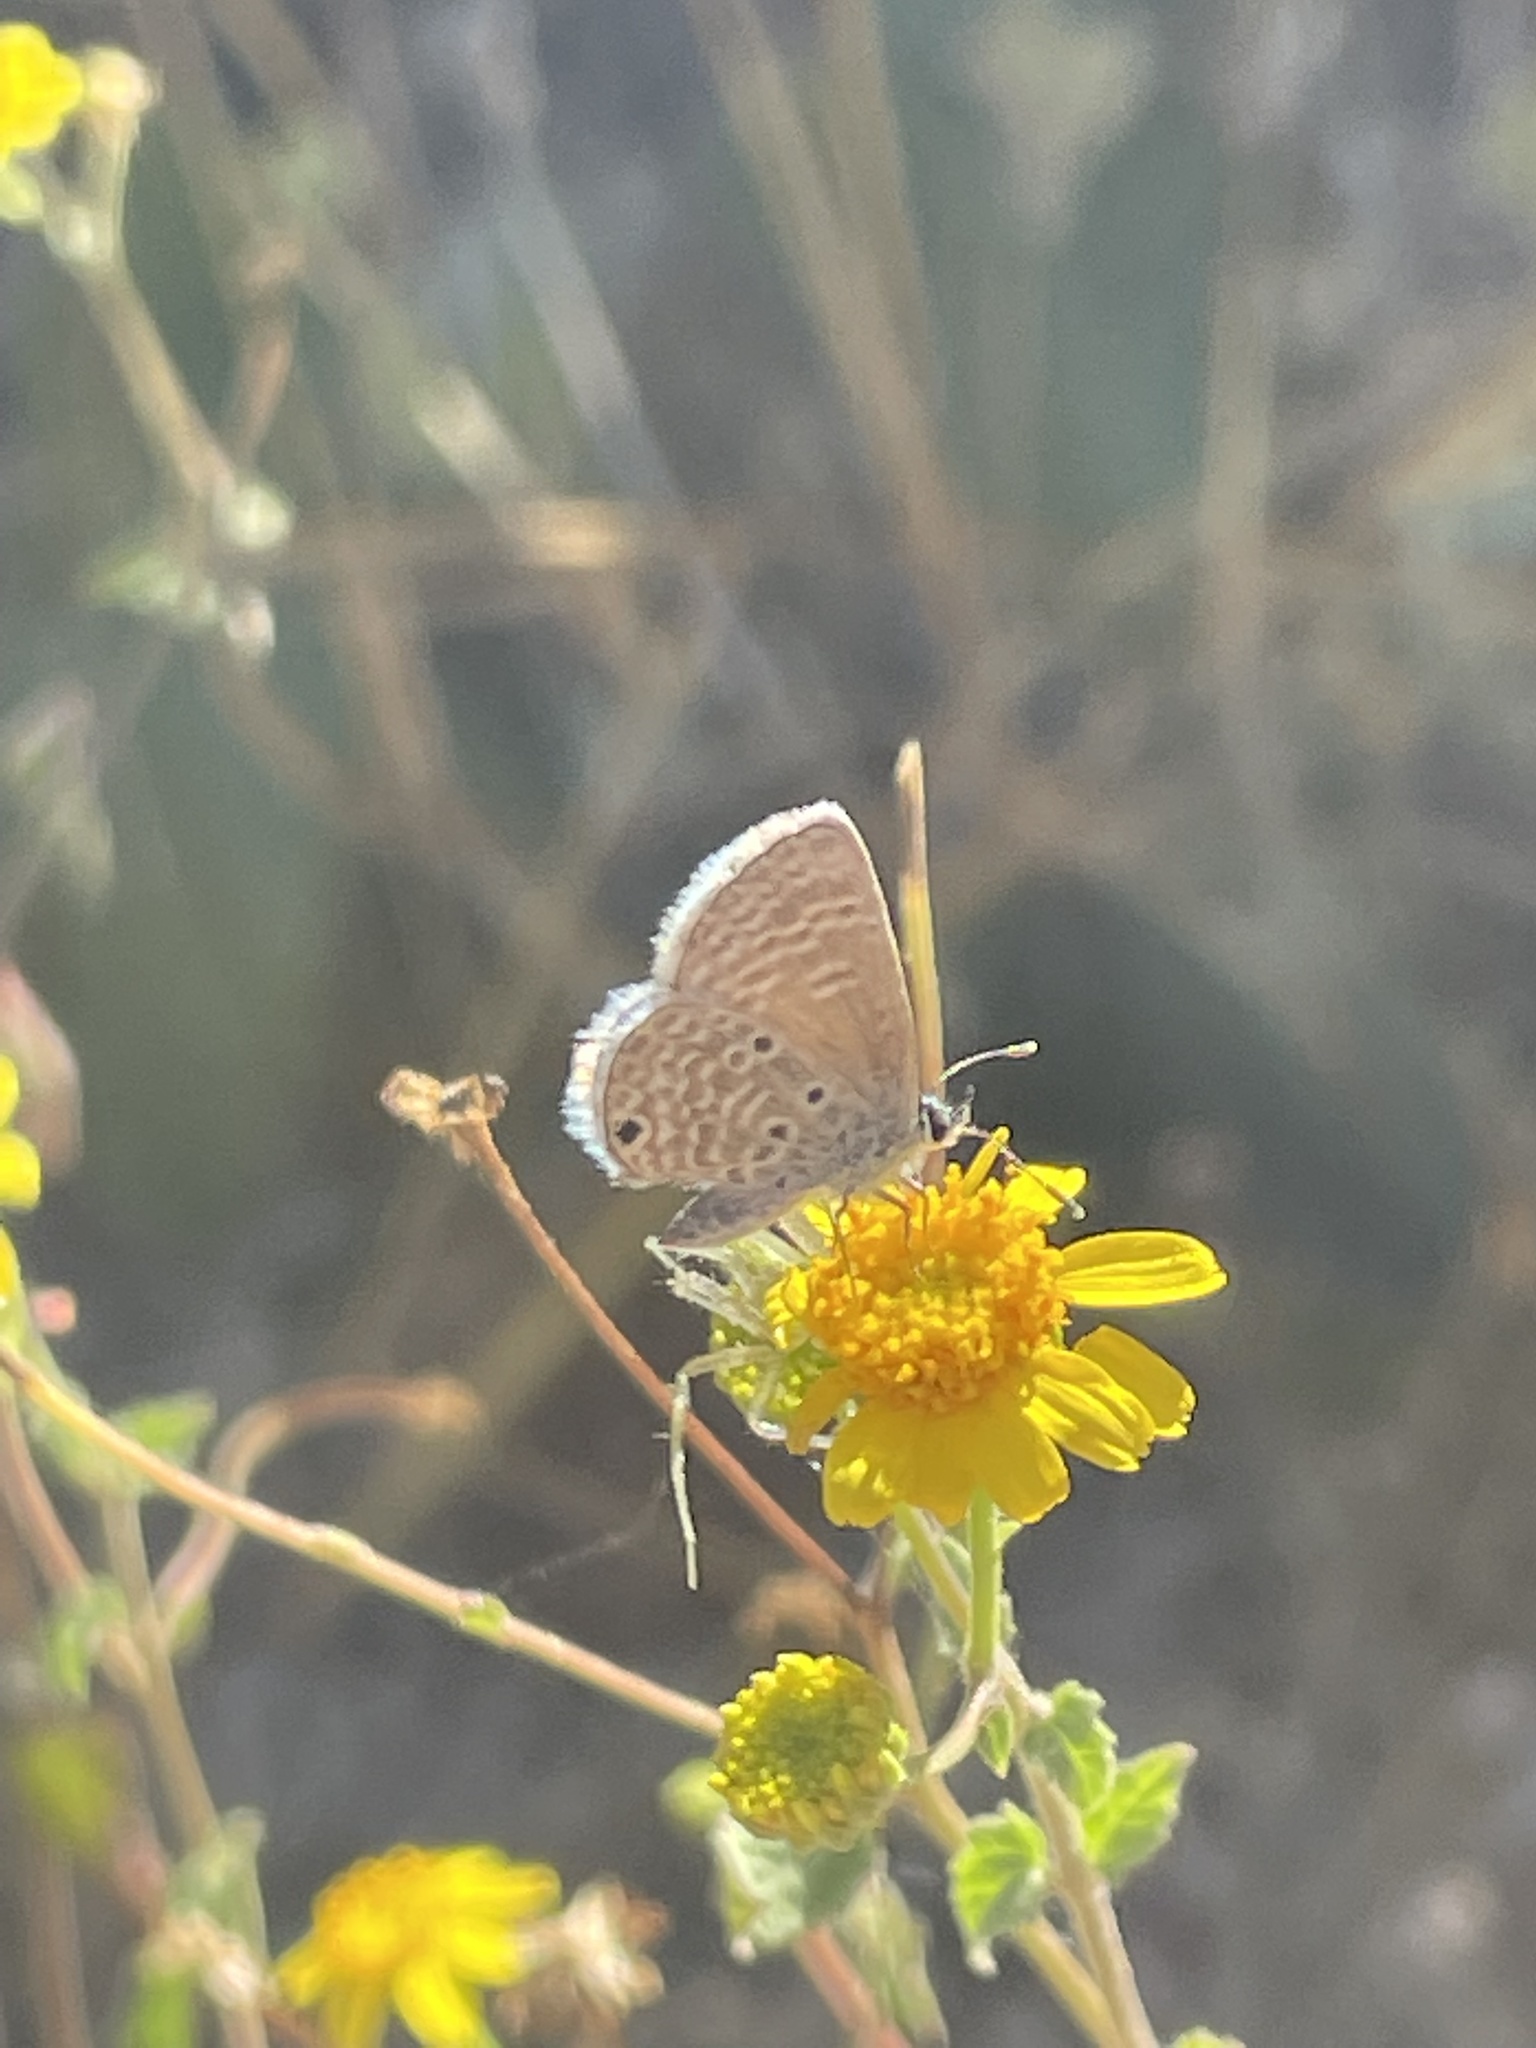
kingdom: Animalia
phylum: Arthropoda
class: Insecta
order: Lepidoptera
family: Lycaenidae
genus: Echinargus
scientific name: Echinargus isola
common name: Reakirt's blue
